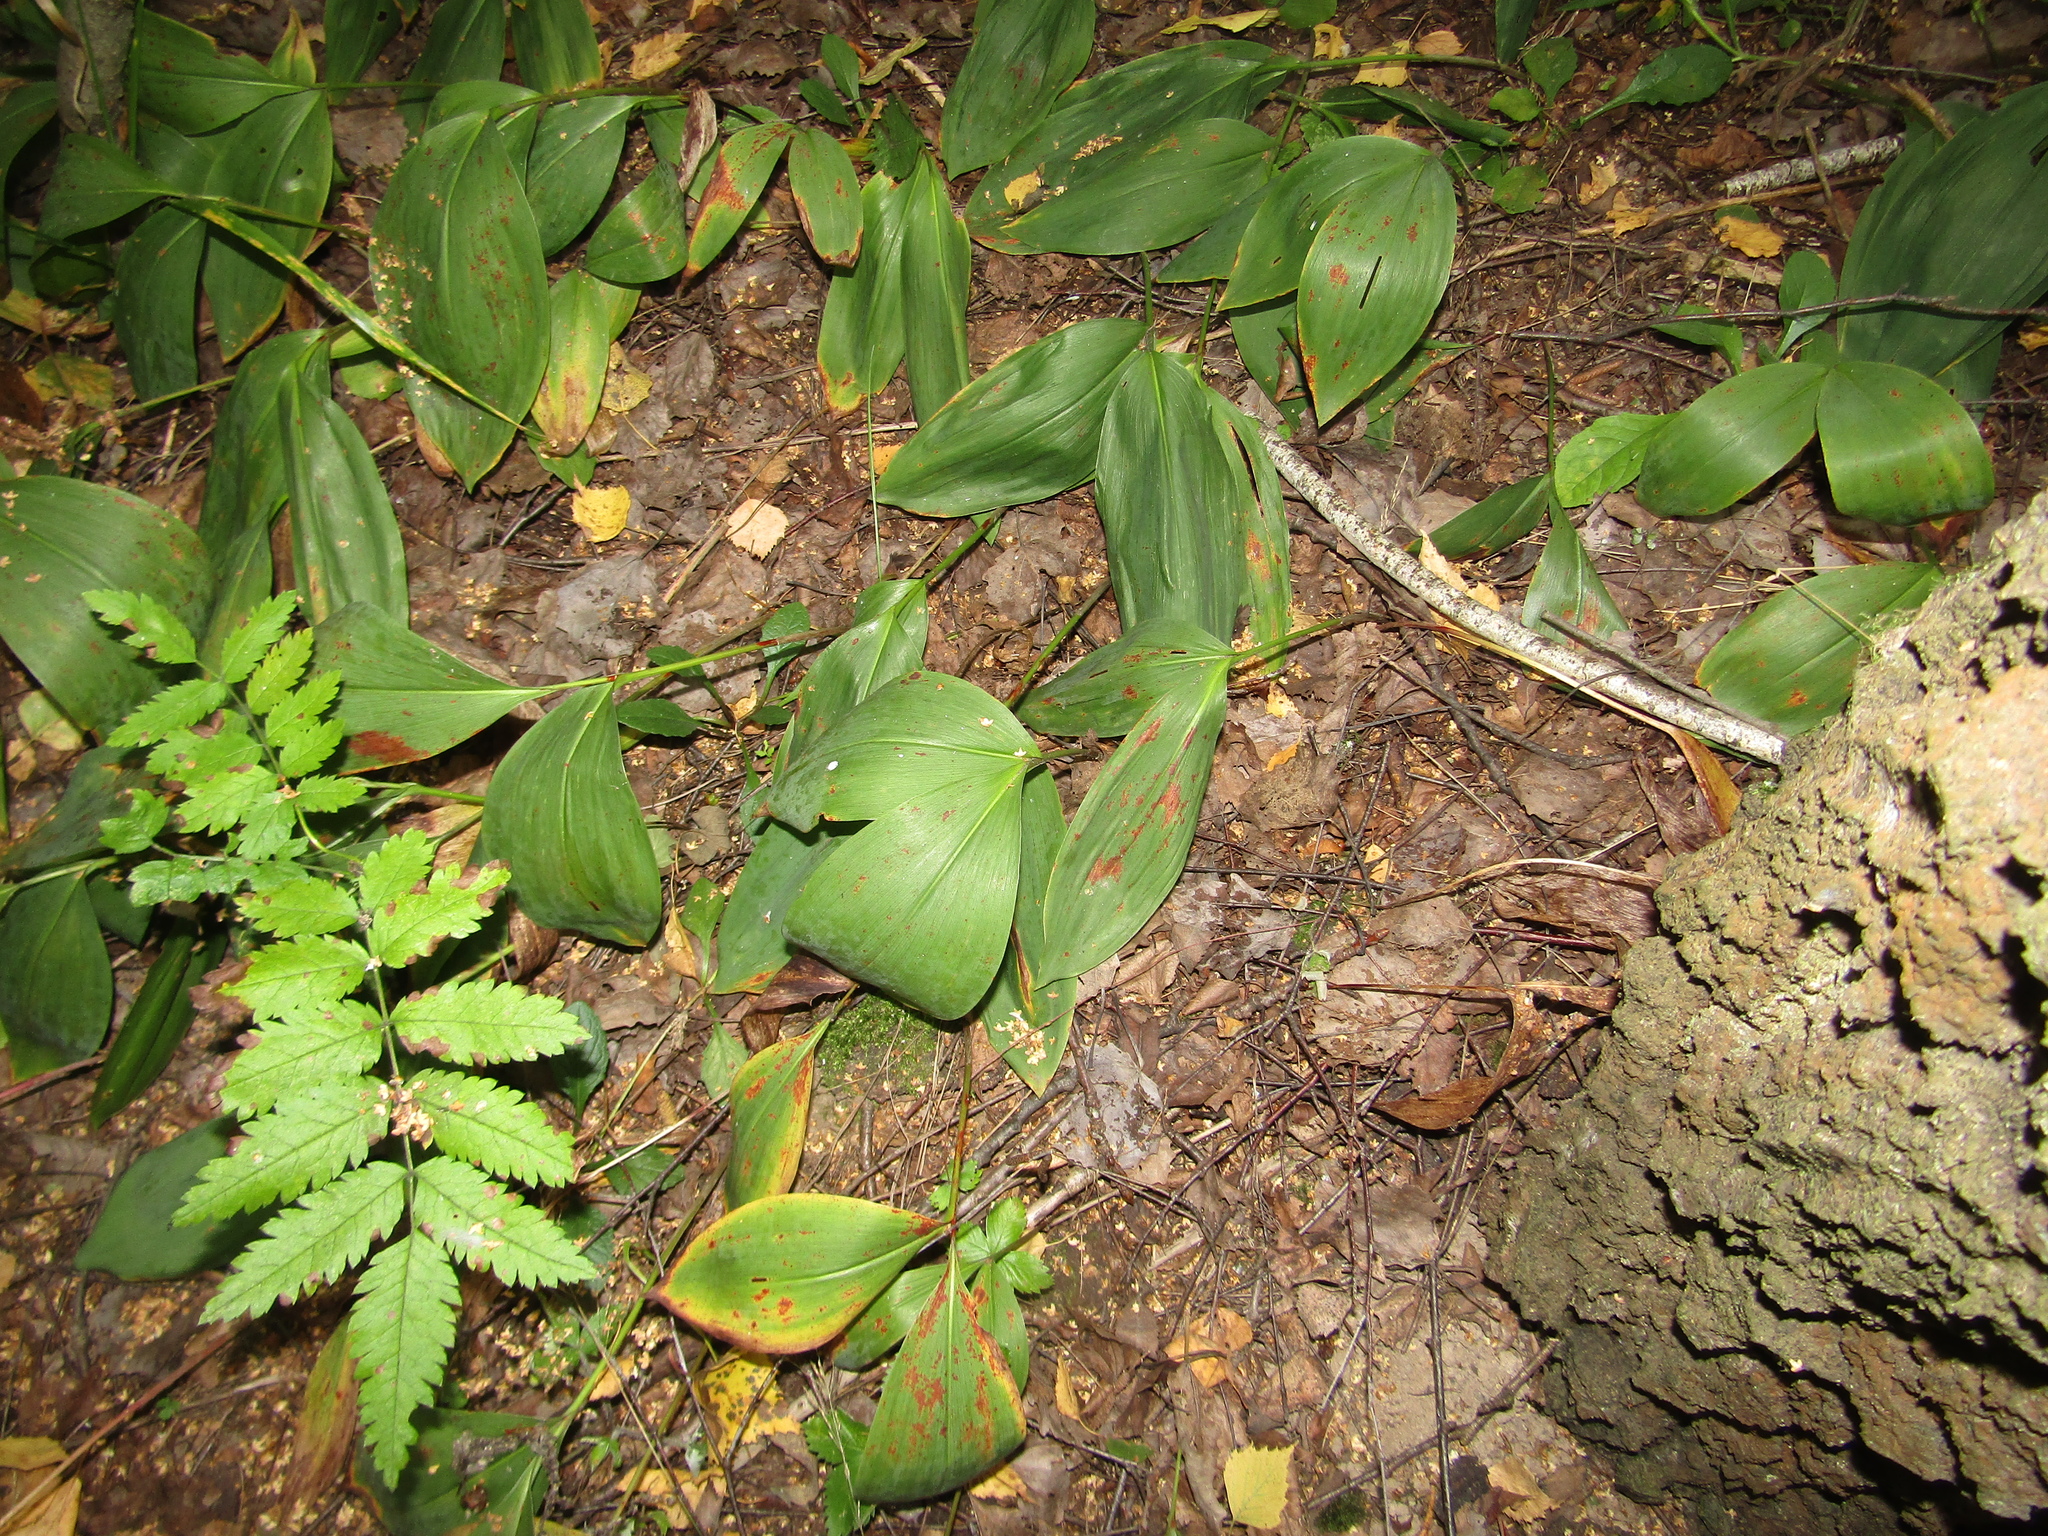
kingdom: Plantae
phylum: Tracheophyta
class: Liliopsida
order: Asparagales
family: Asparagaceae
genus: Convallaria
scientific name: Convallaria majalis
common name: Lily-of-the-valley
